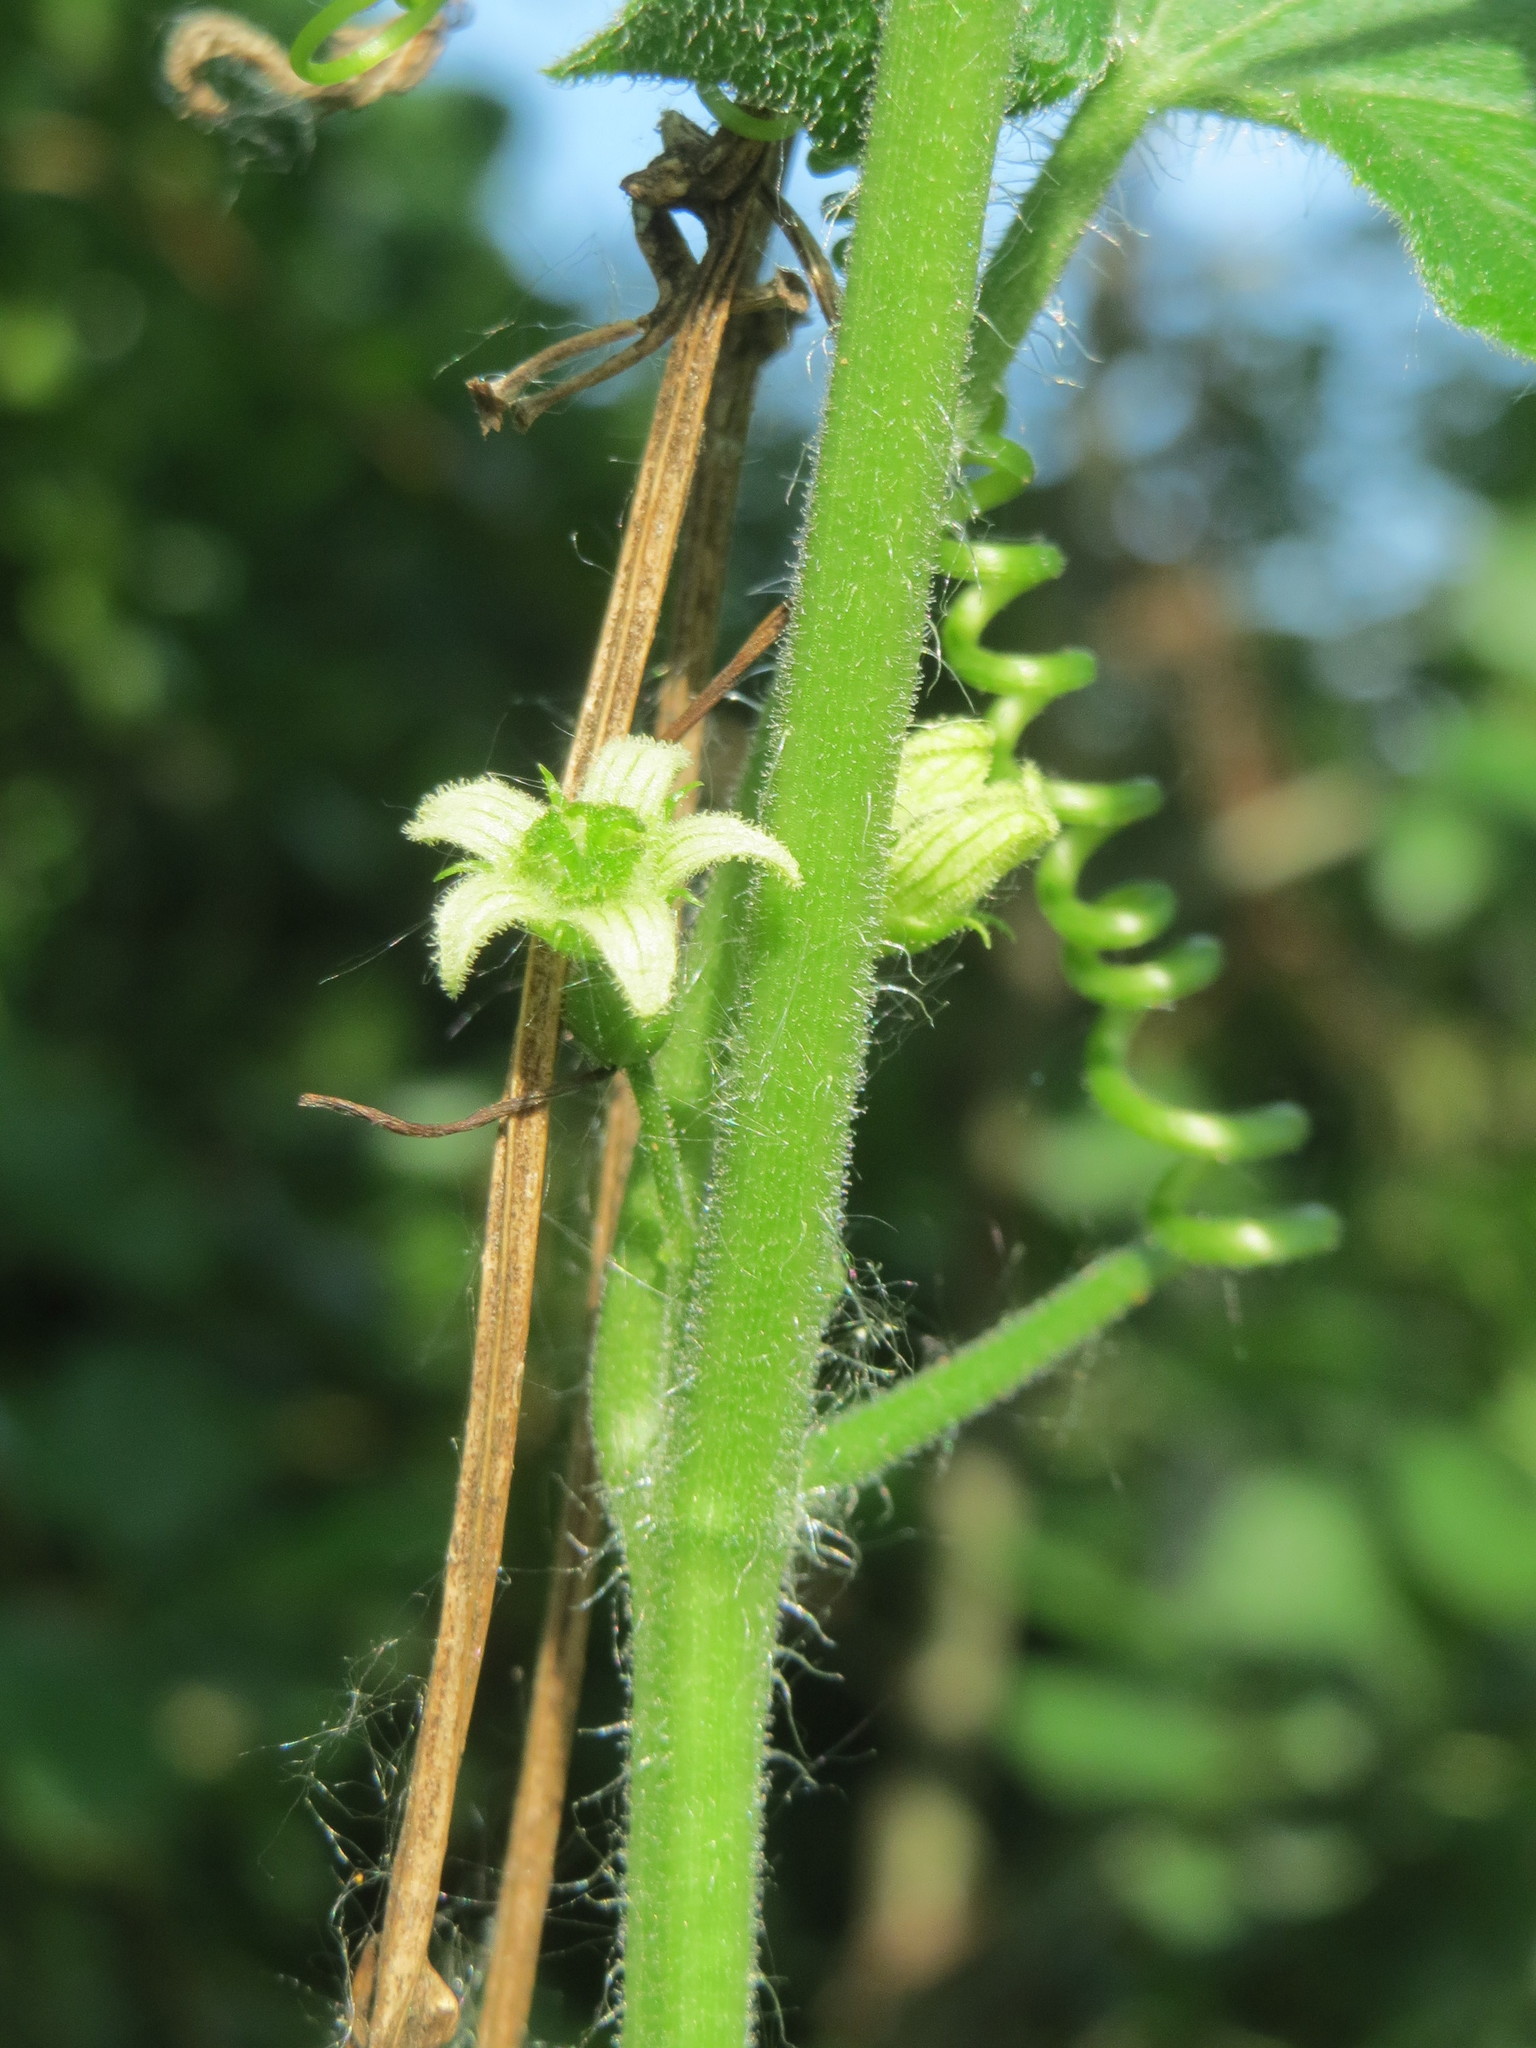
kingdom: Plantae
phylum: Tracheophyta
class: Magnoliopsida
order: Cucurbitales
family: Cucurbitaceae
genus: Bryonia
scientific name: Bryonia dioica
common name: White bryony
